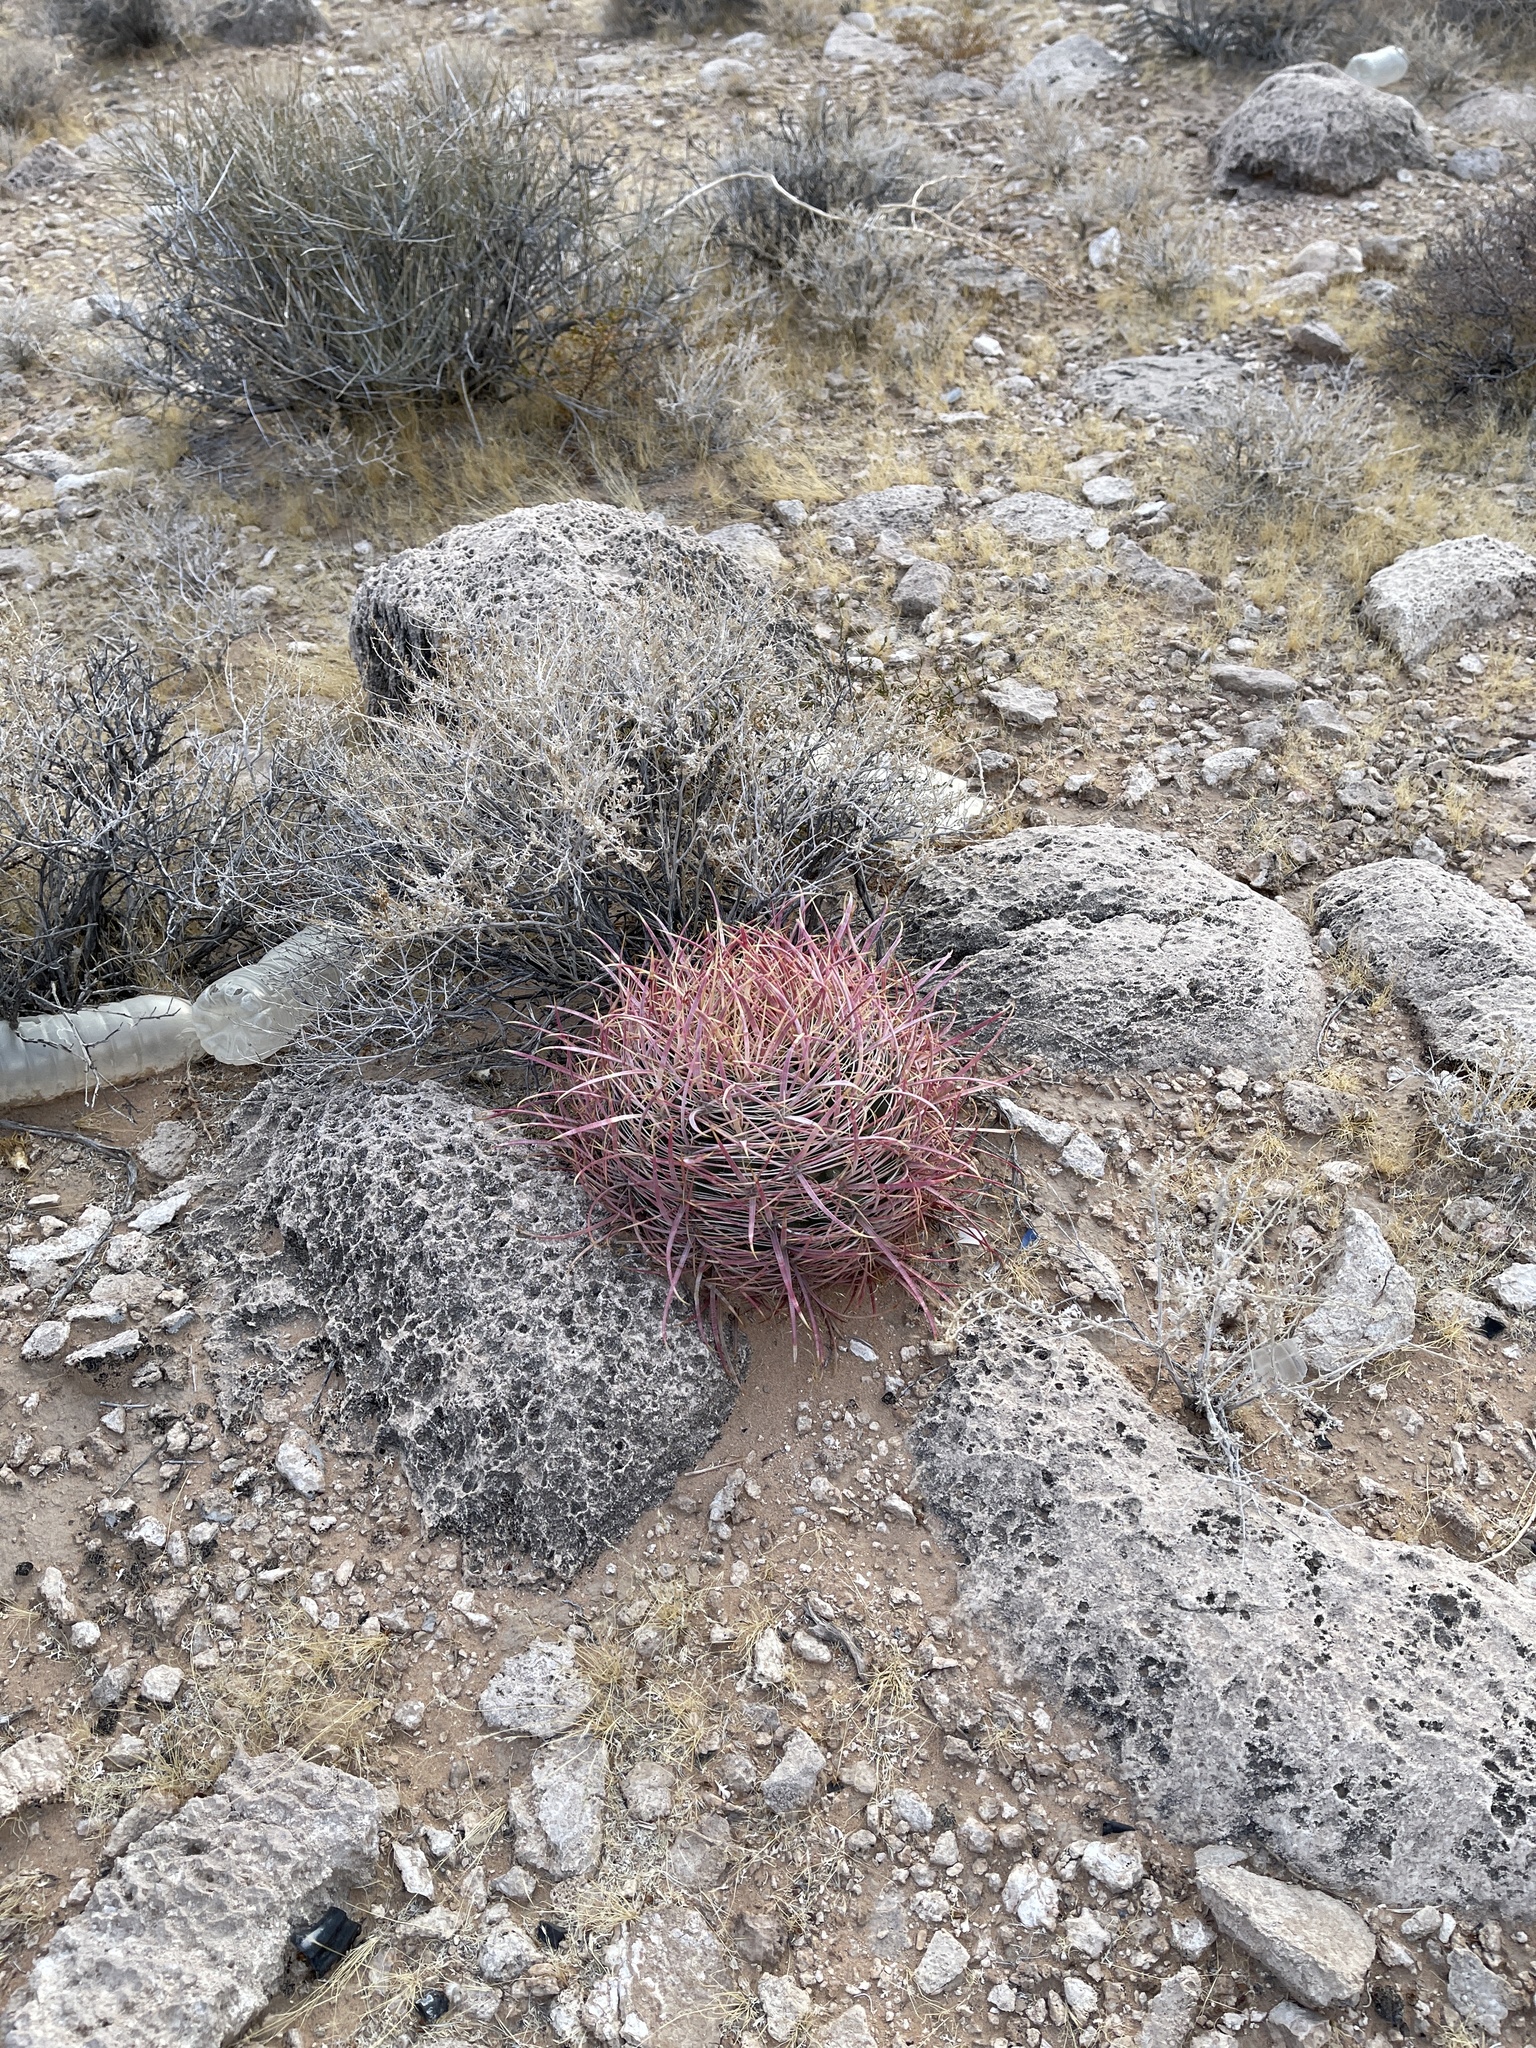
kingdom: Plantae
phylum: Tracheophyta
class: Magnoliopsida
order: Caryophyllales
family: Cactaceae
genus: Ferocactus
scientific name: Ferocactus cylindraceus
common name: California barrel cactus
